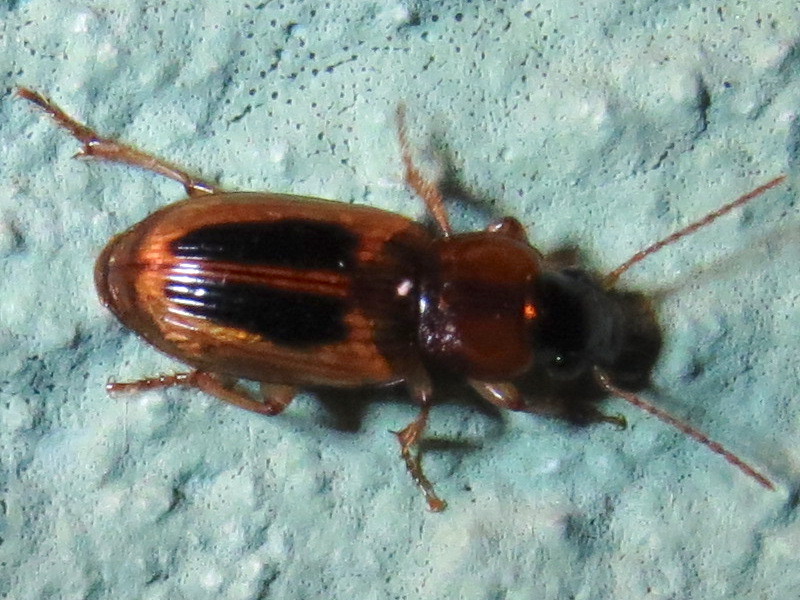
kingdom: Animalia
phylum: Arthropoda
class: Insecta
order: Coleoptera
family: Carabidae
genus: Stenolophus
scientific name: Stenolophus lecontei
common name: Leconte's seedcorn beetle
